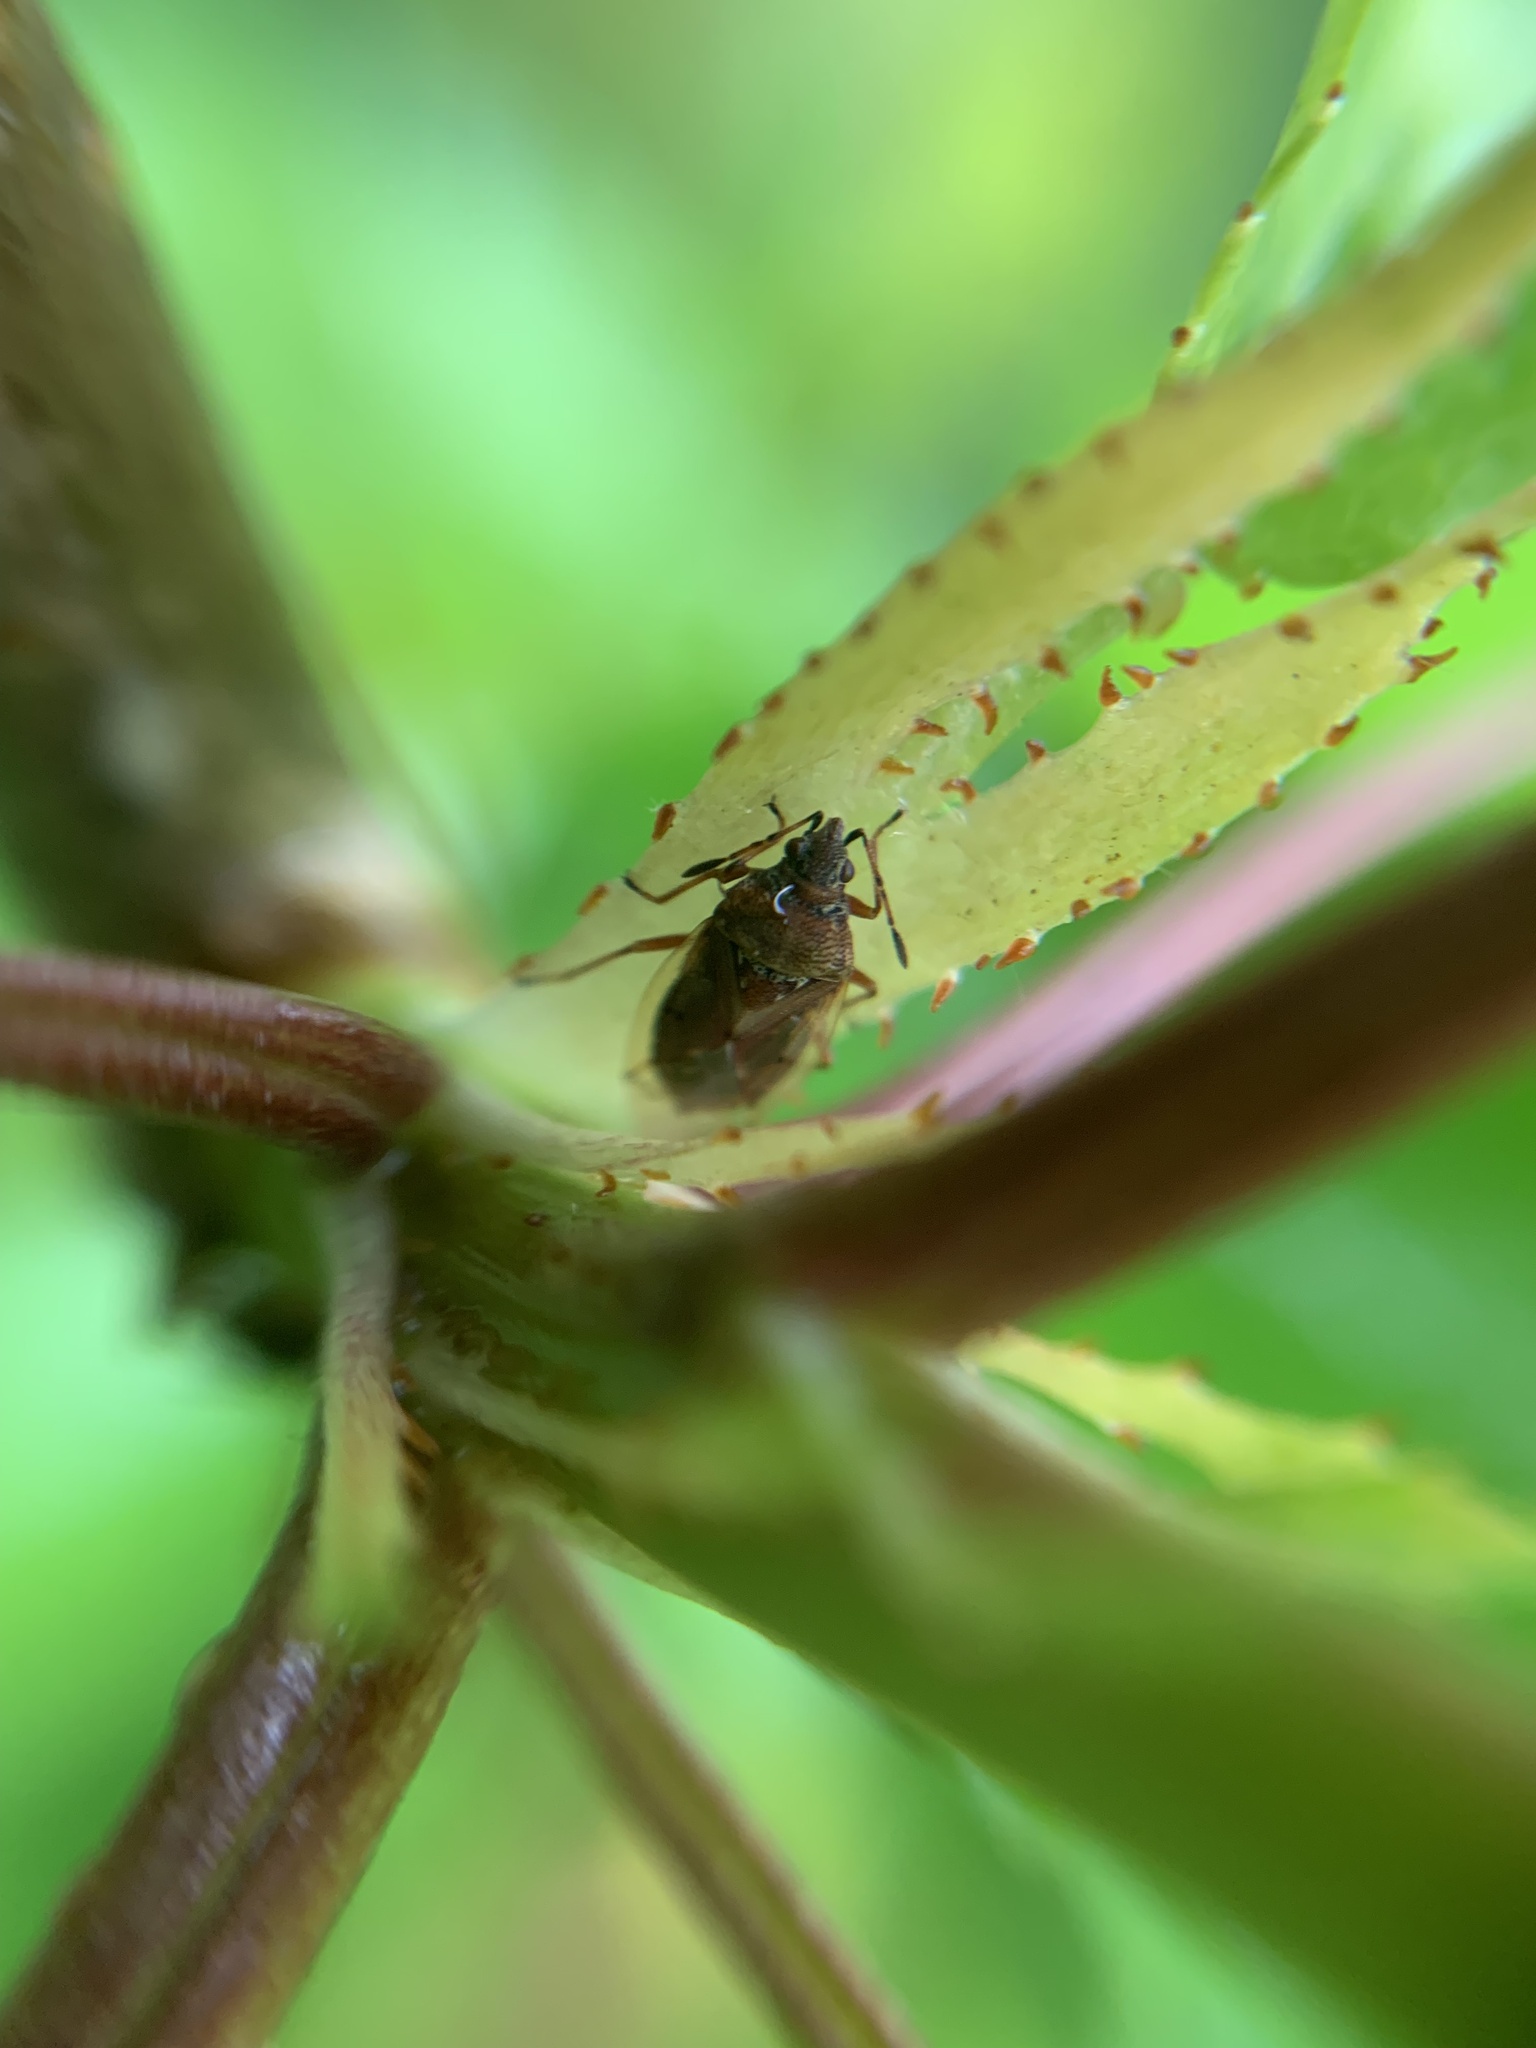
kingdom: Animalia
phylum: Arthropoda
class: Insecta
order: Hemiptera
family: Lygaeidae
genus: Kleidocerys
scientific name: Kleidocerys resedae
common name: Birch catkin bug
